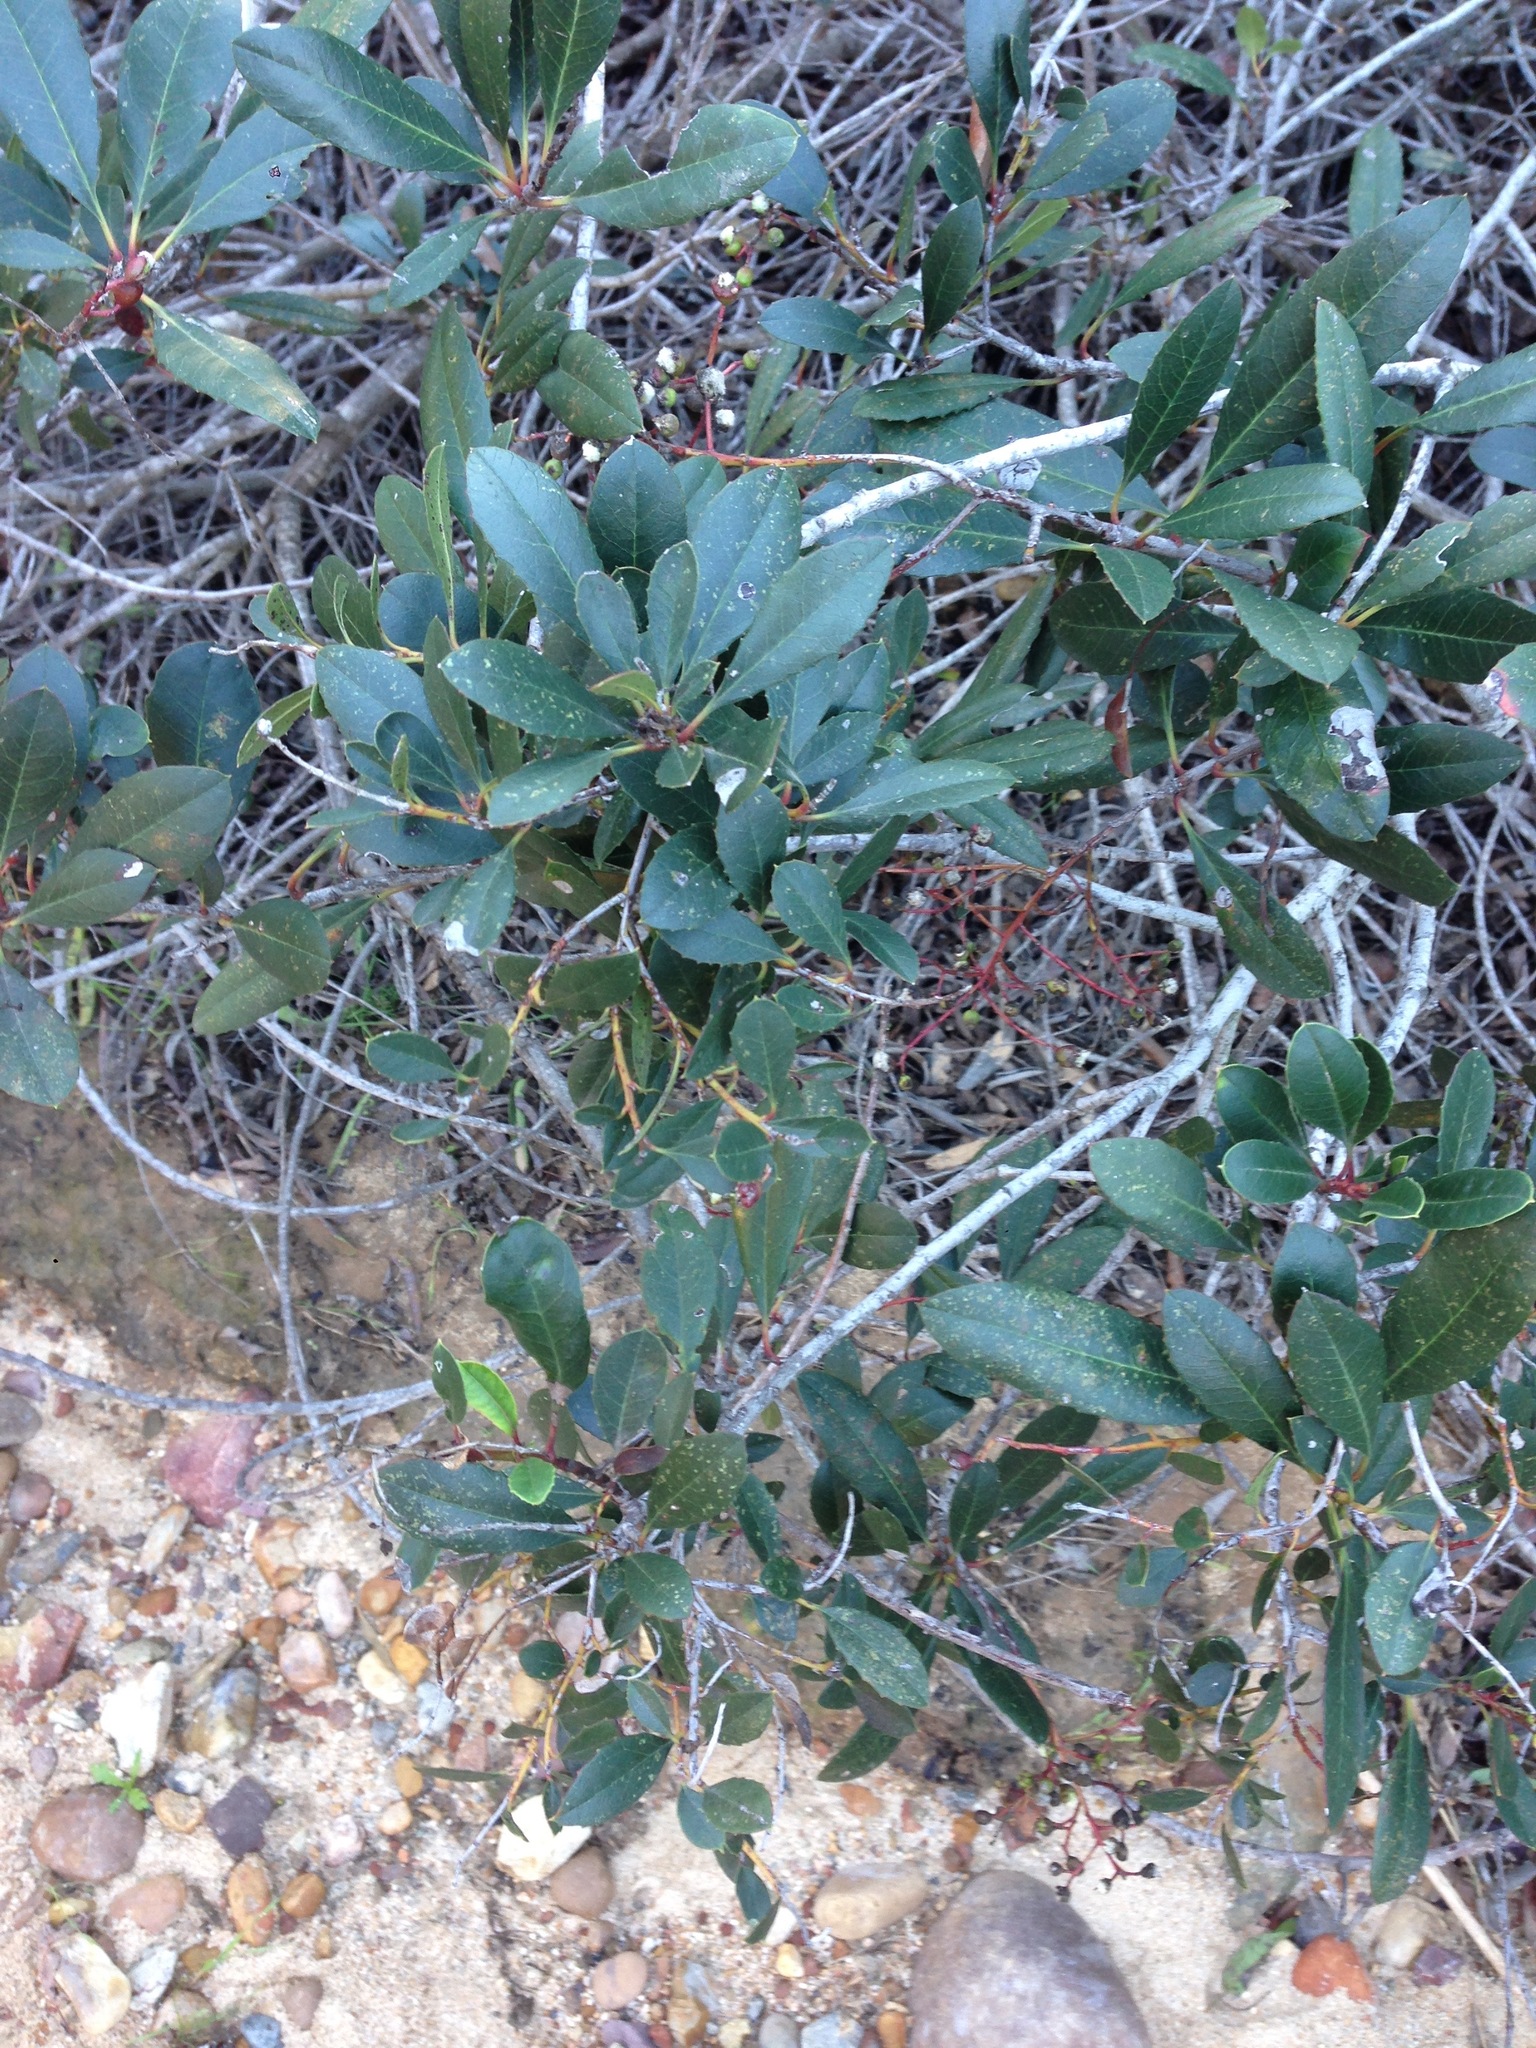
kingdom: Plantae
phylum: Tracheophyta
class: Magnoliopsida
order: Rosales
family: Rosaceae
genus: Heteromeles
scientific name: Heteromeles arbutifolia
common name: California-holly
